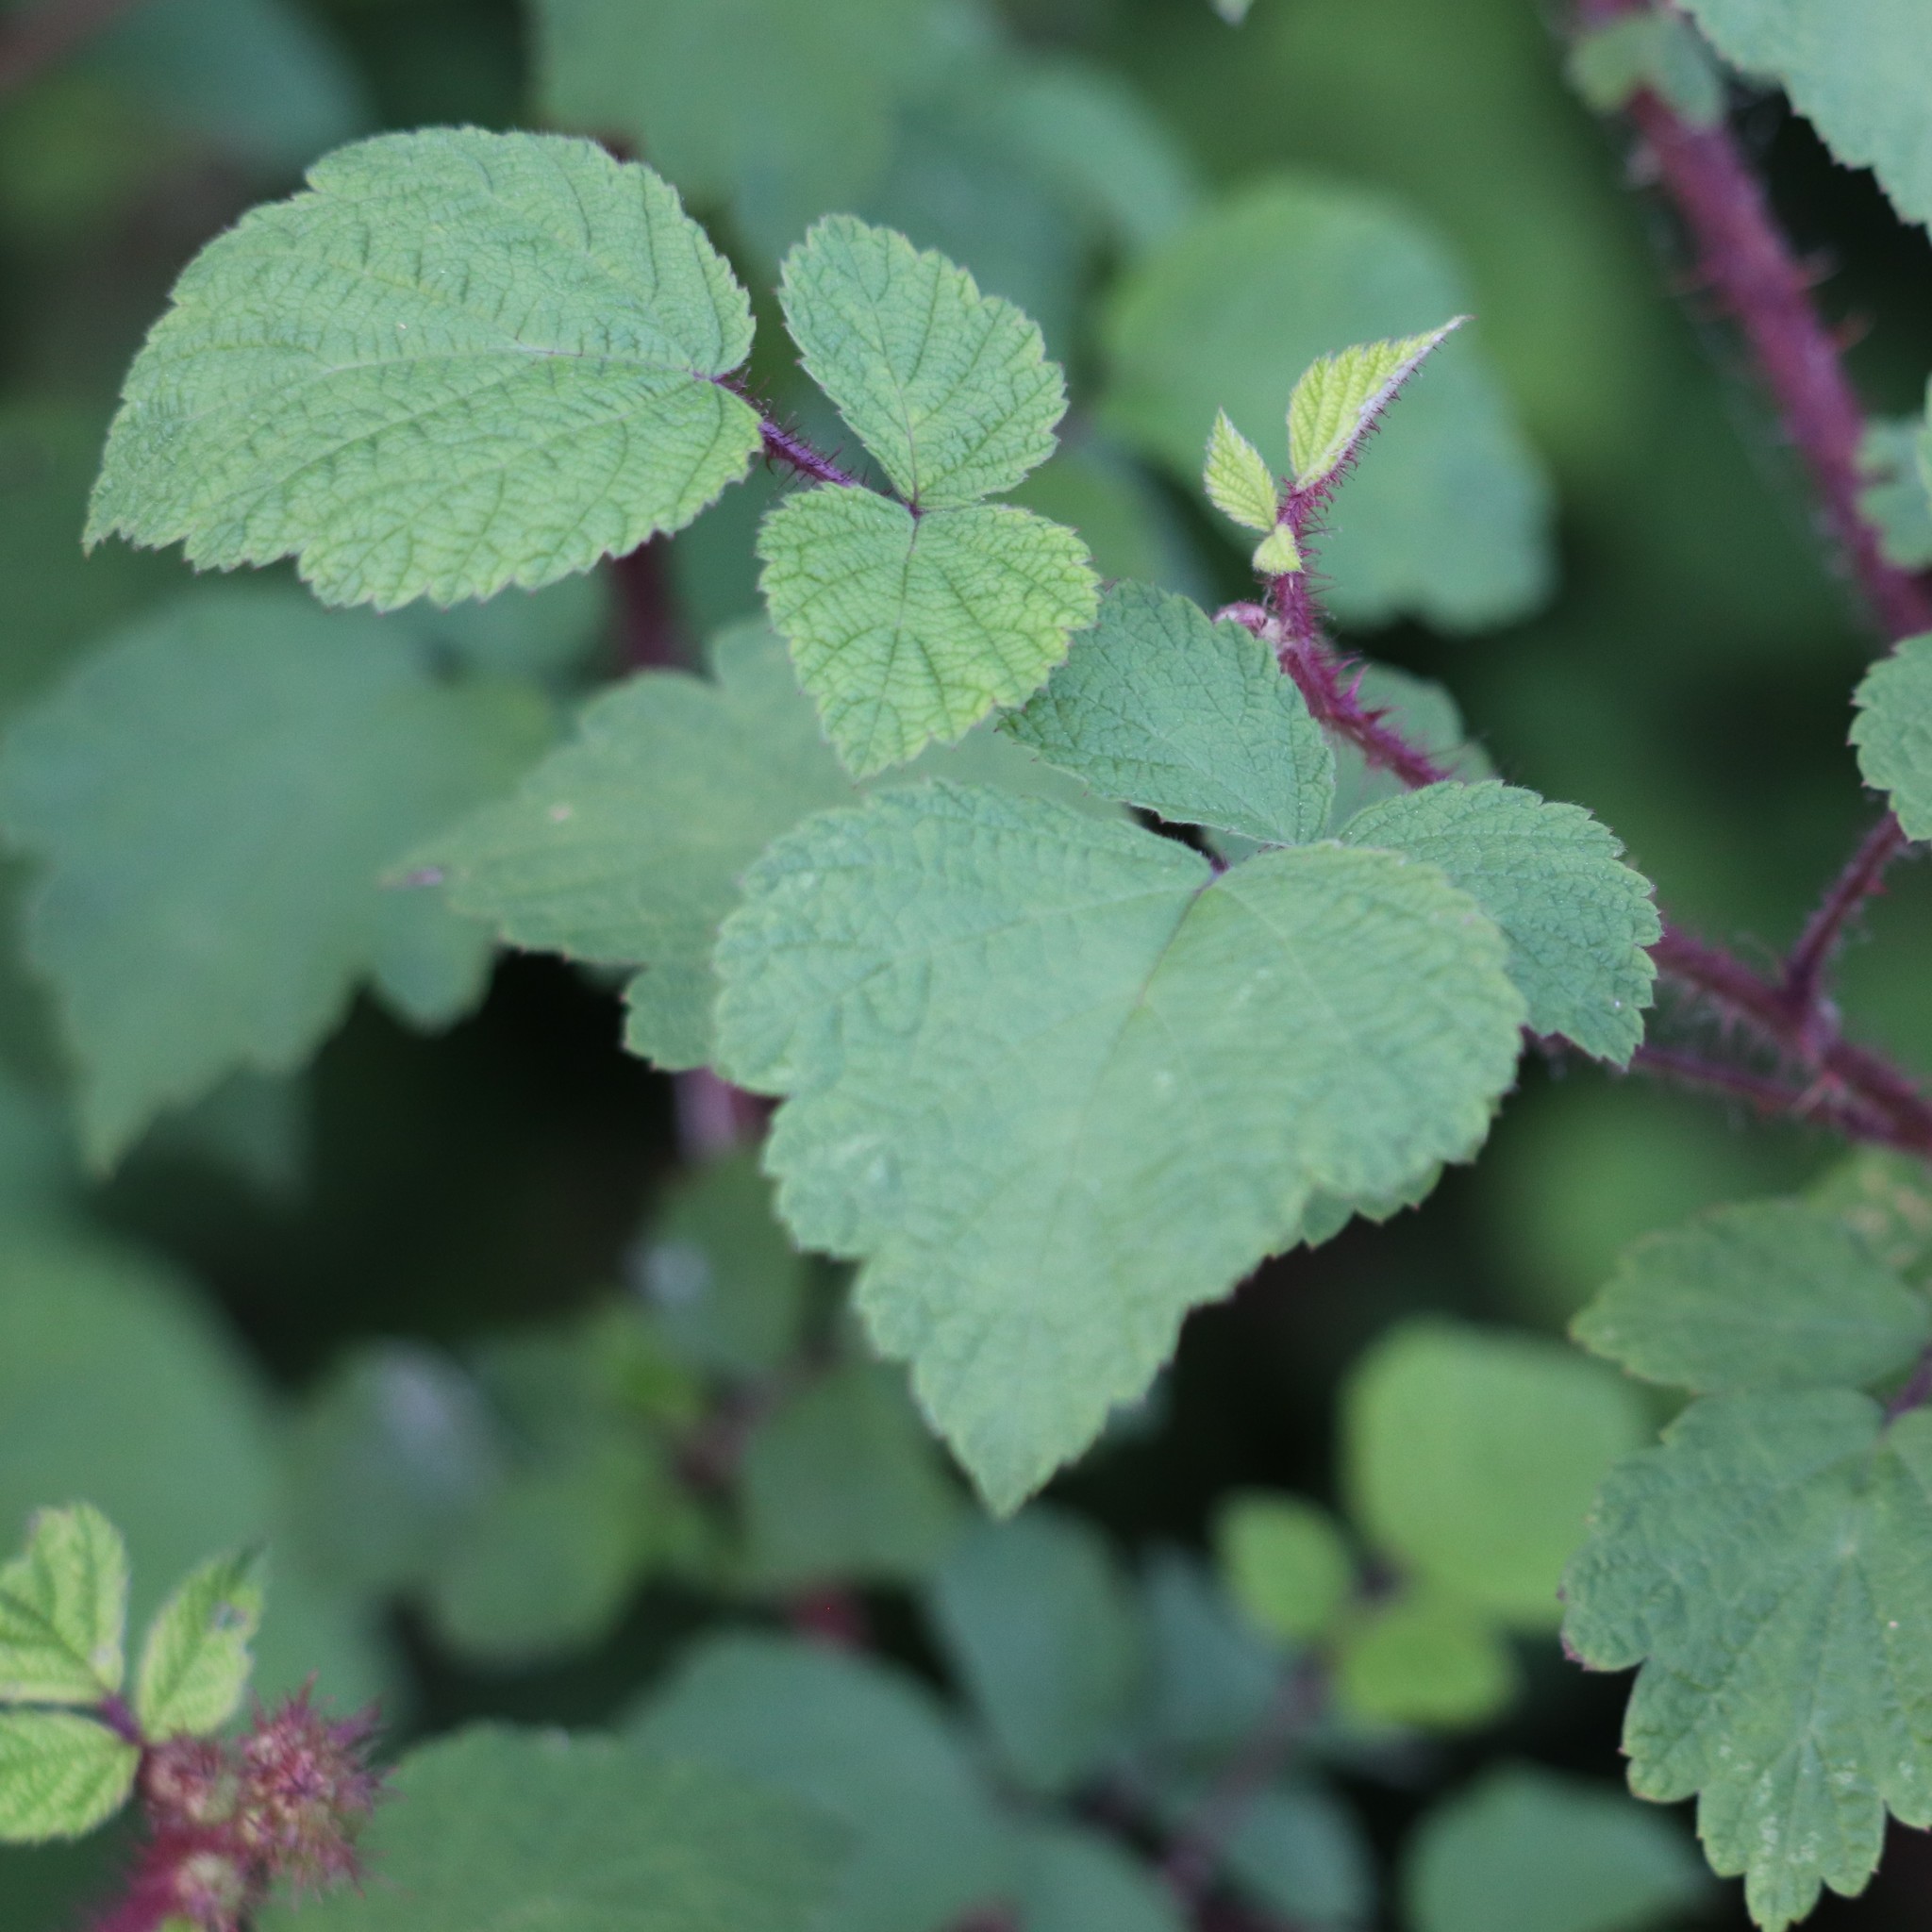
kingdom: Plantae
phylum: Tracheophyta
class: Magnoliopsida
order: Rosales
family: Rosaceae
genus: Rubus
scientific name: Rubus phoenicolasius
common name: Japanese wineberry
